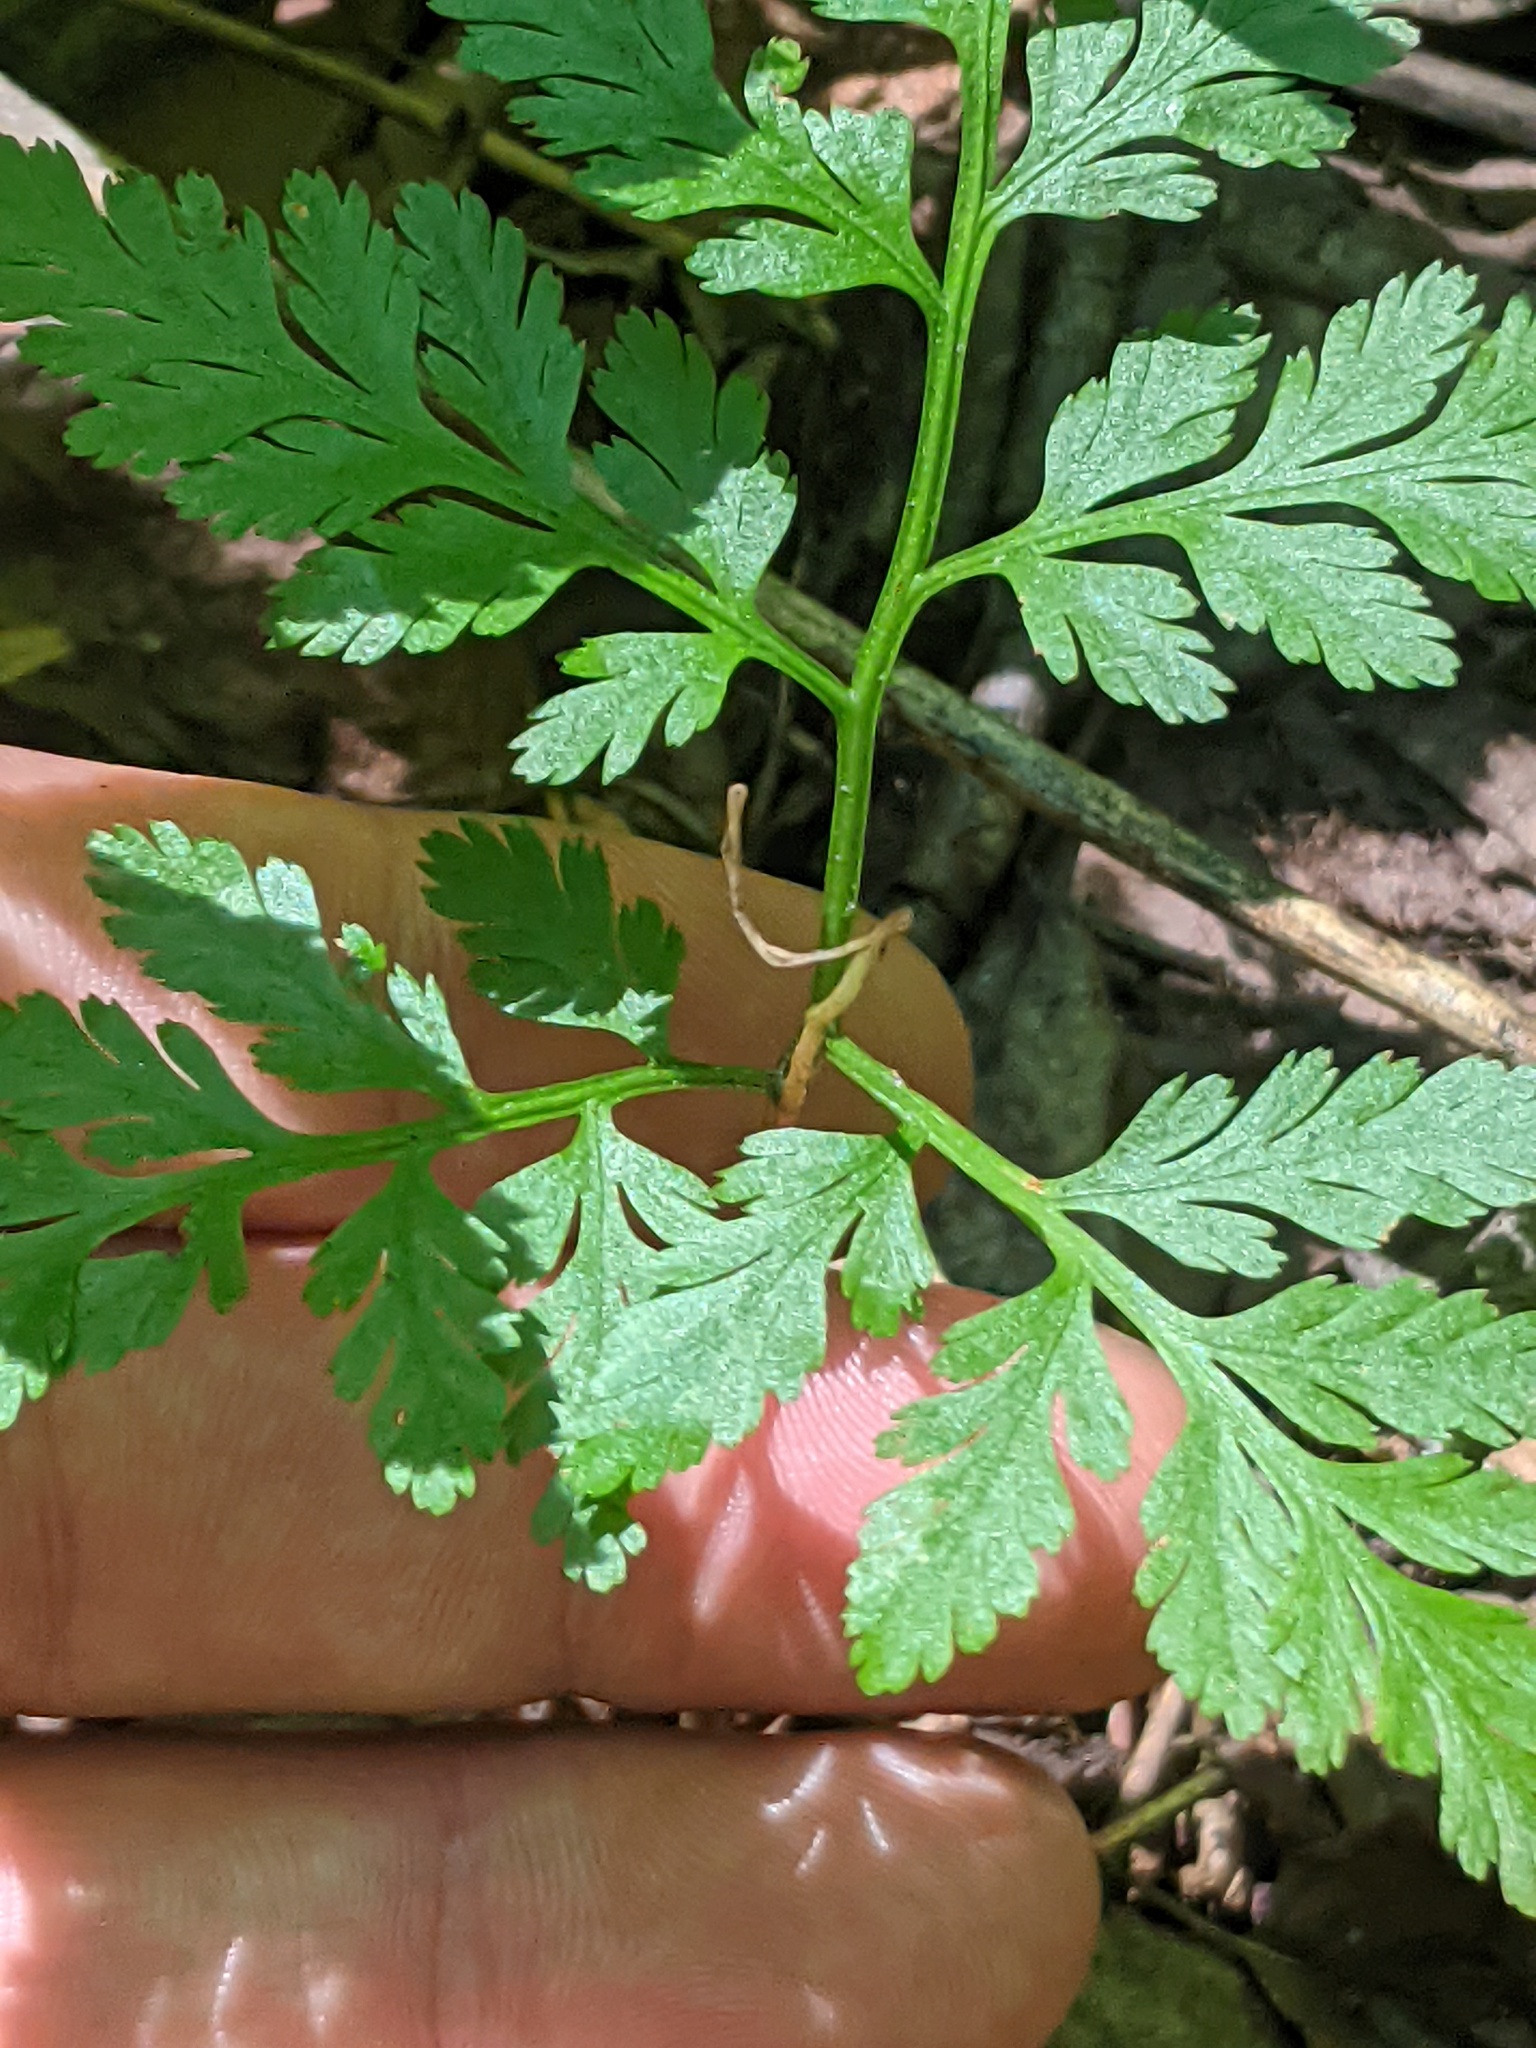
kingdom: Plantae
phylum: Tracheophyta
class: Polypodiopsida
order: Ophioglossales
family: Ophioglossaceae
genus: Botrypus
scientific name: Botrypus virginianus
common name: Common grapefern
